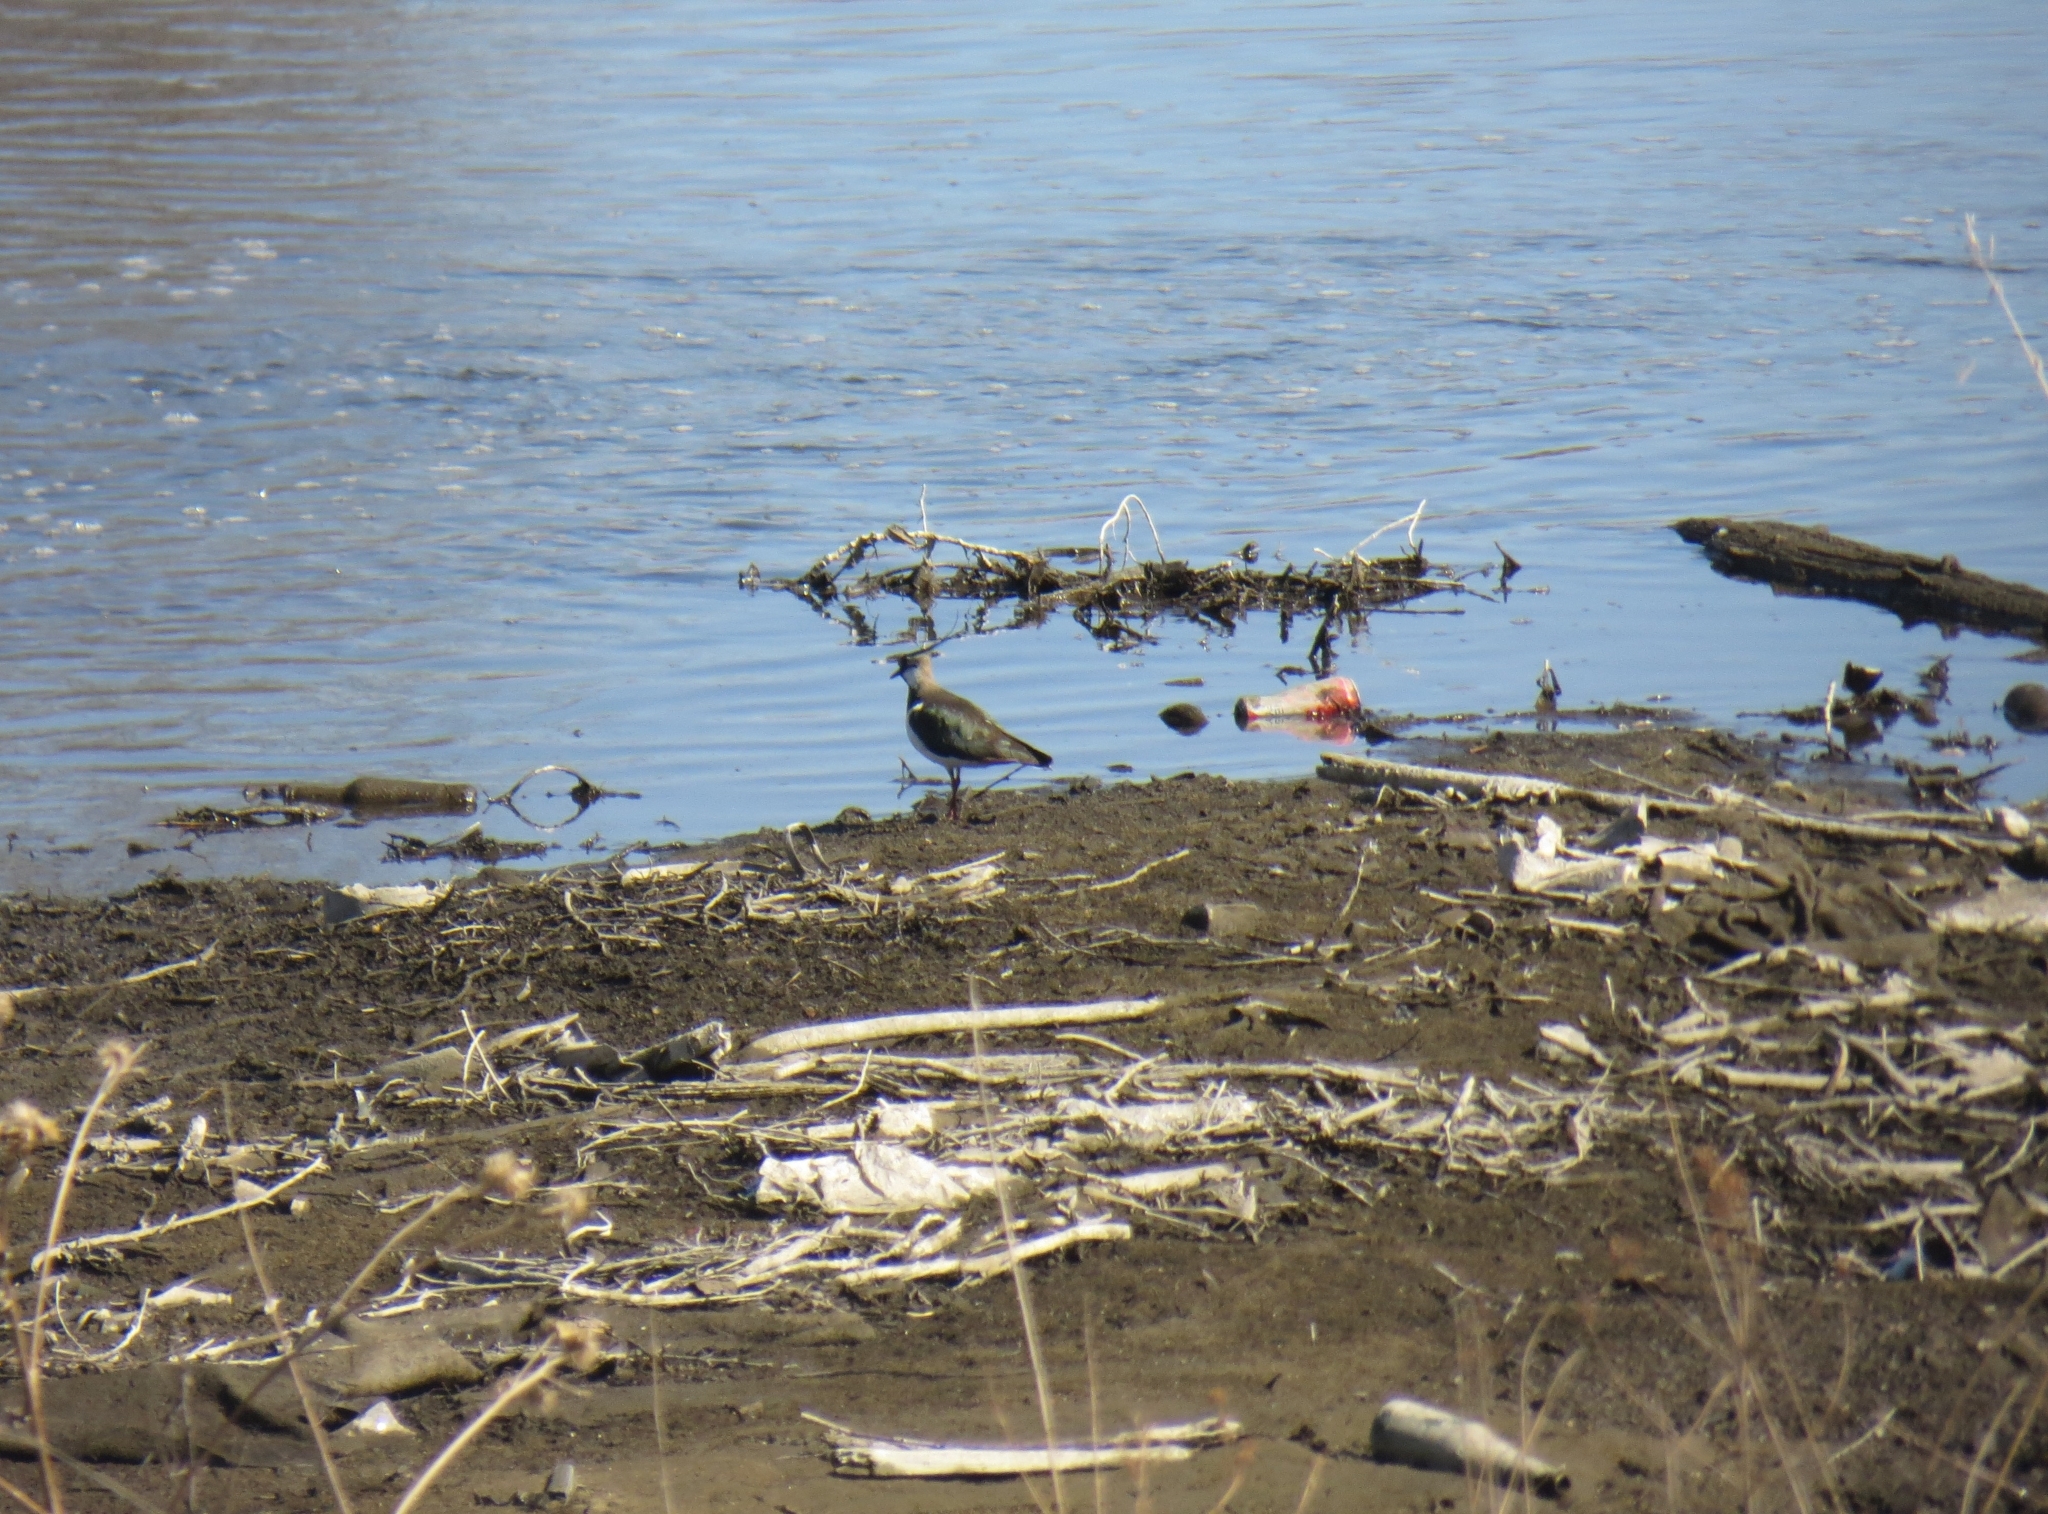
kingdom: Animalia
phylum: Chordata
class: Aves
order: Charadriiformes
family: Charadriidae
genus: Vanellus
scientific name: Vanellus vanellus
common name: Northern lapwing
